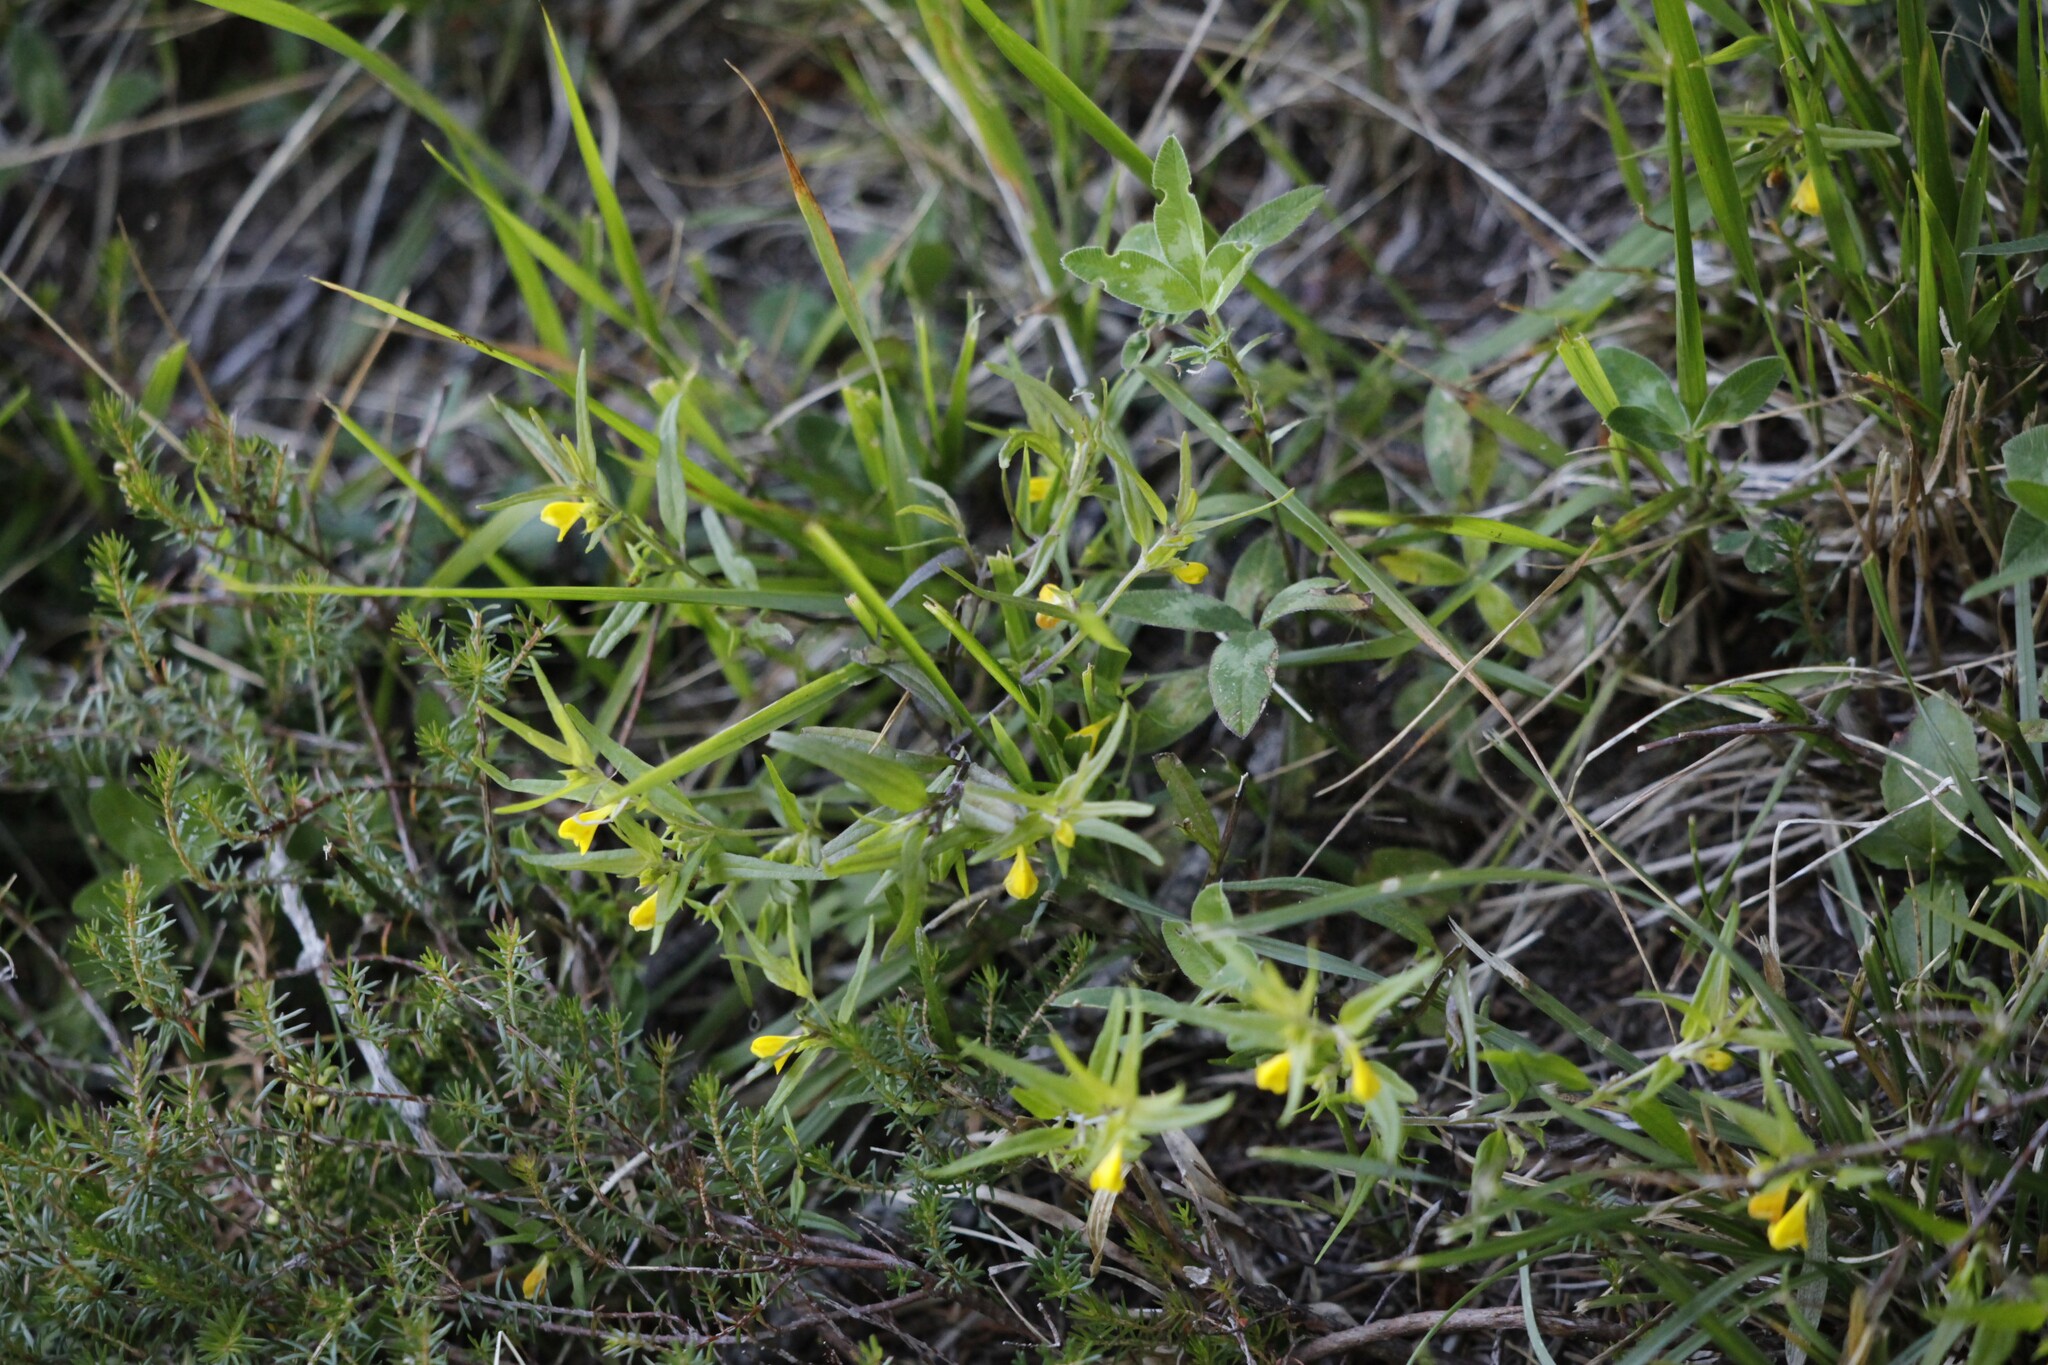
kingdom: Plantae
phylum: Tracheophyta
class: Magnoliopsida
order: Lamiales
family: Orobanchaceae
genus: Melampyrum
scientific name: Melampyrum sylvaticum
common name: Small cow-wheat
